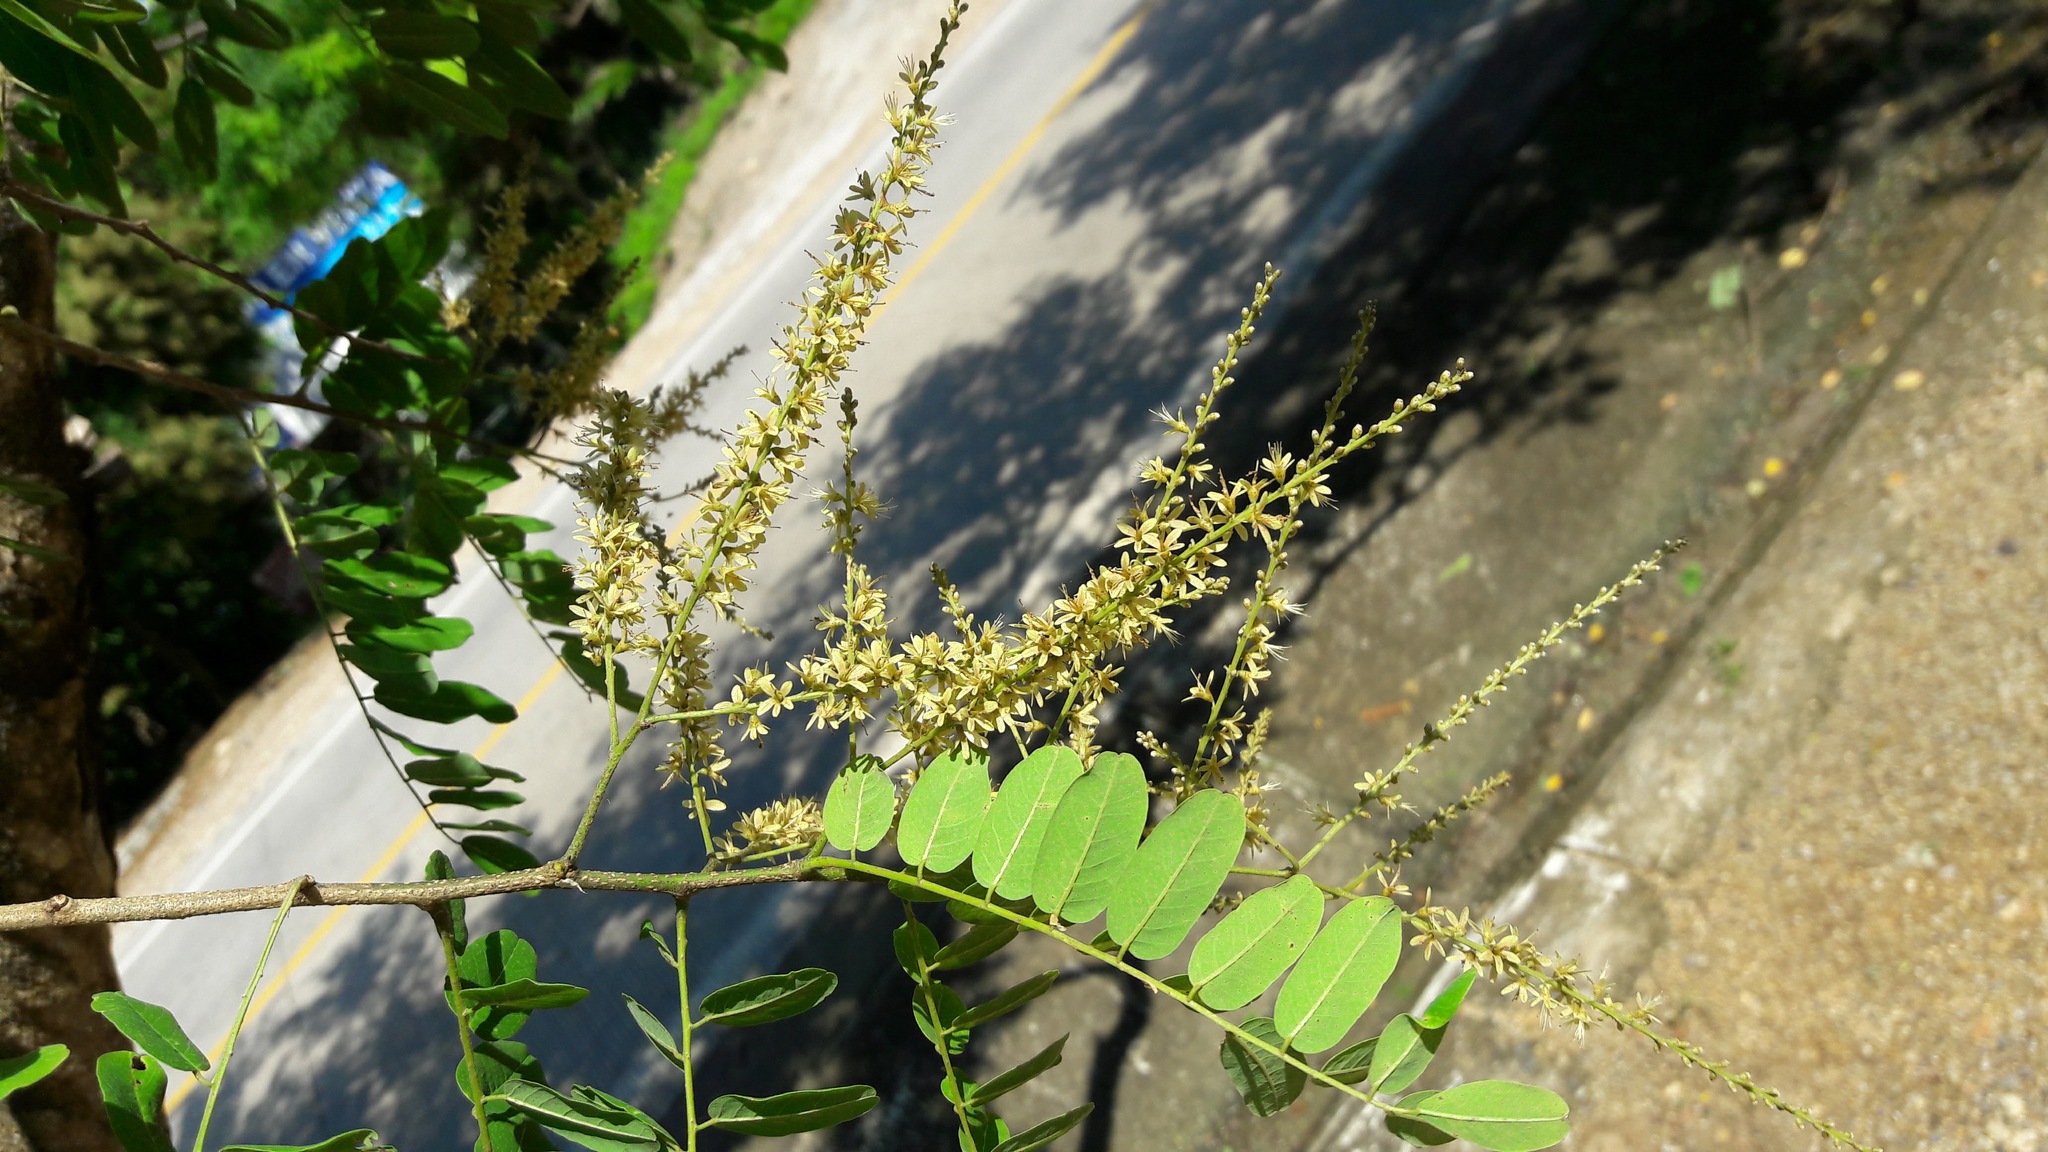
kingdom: Plantae
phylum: Tracheophyta
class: Magnoliopsida
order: Fabales
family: Fabaceae
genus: Apoplanesia
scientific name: Apoplanesia paniculata
